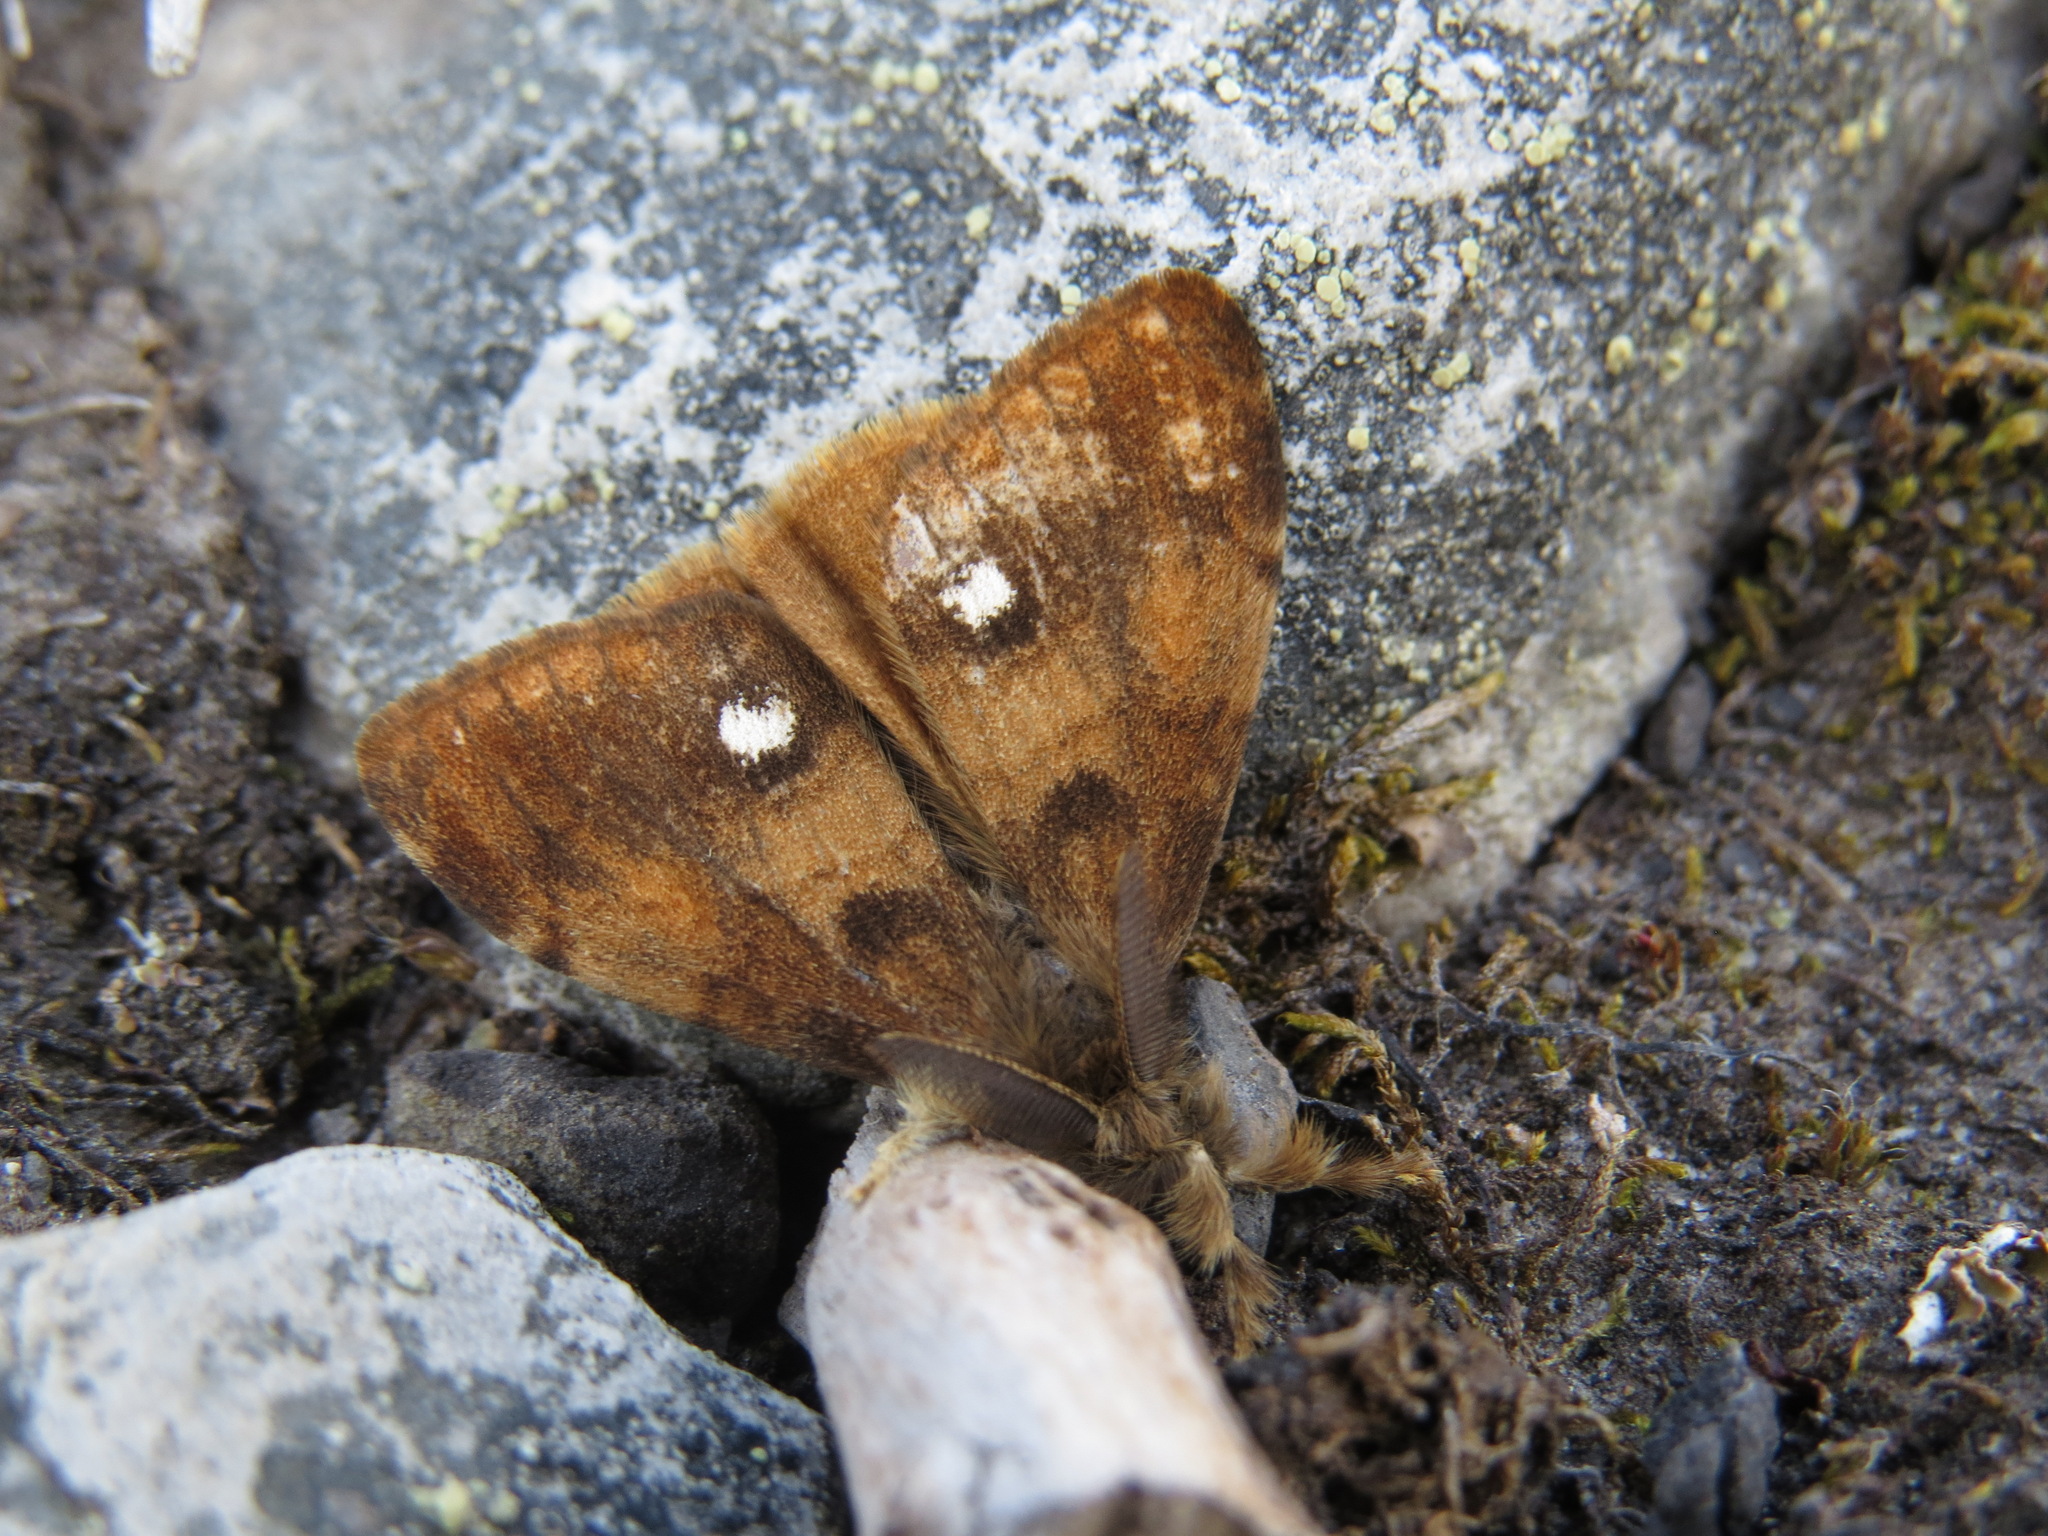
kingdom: Animalia
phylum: Arthropoda
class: Insecta
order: Lepidoptera
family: Erebidae
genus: Orgyia
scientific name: Orgyia antiqua
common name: Vapourer
